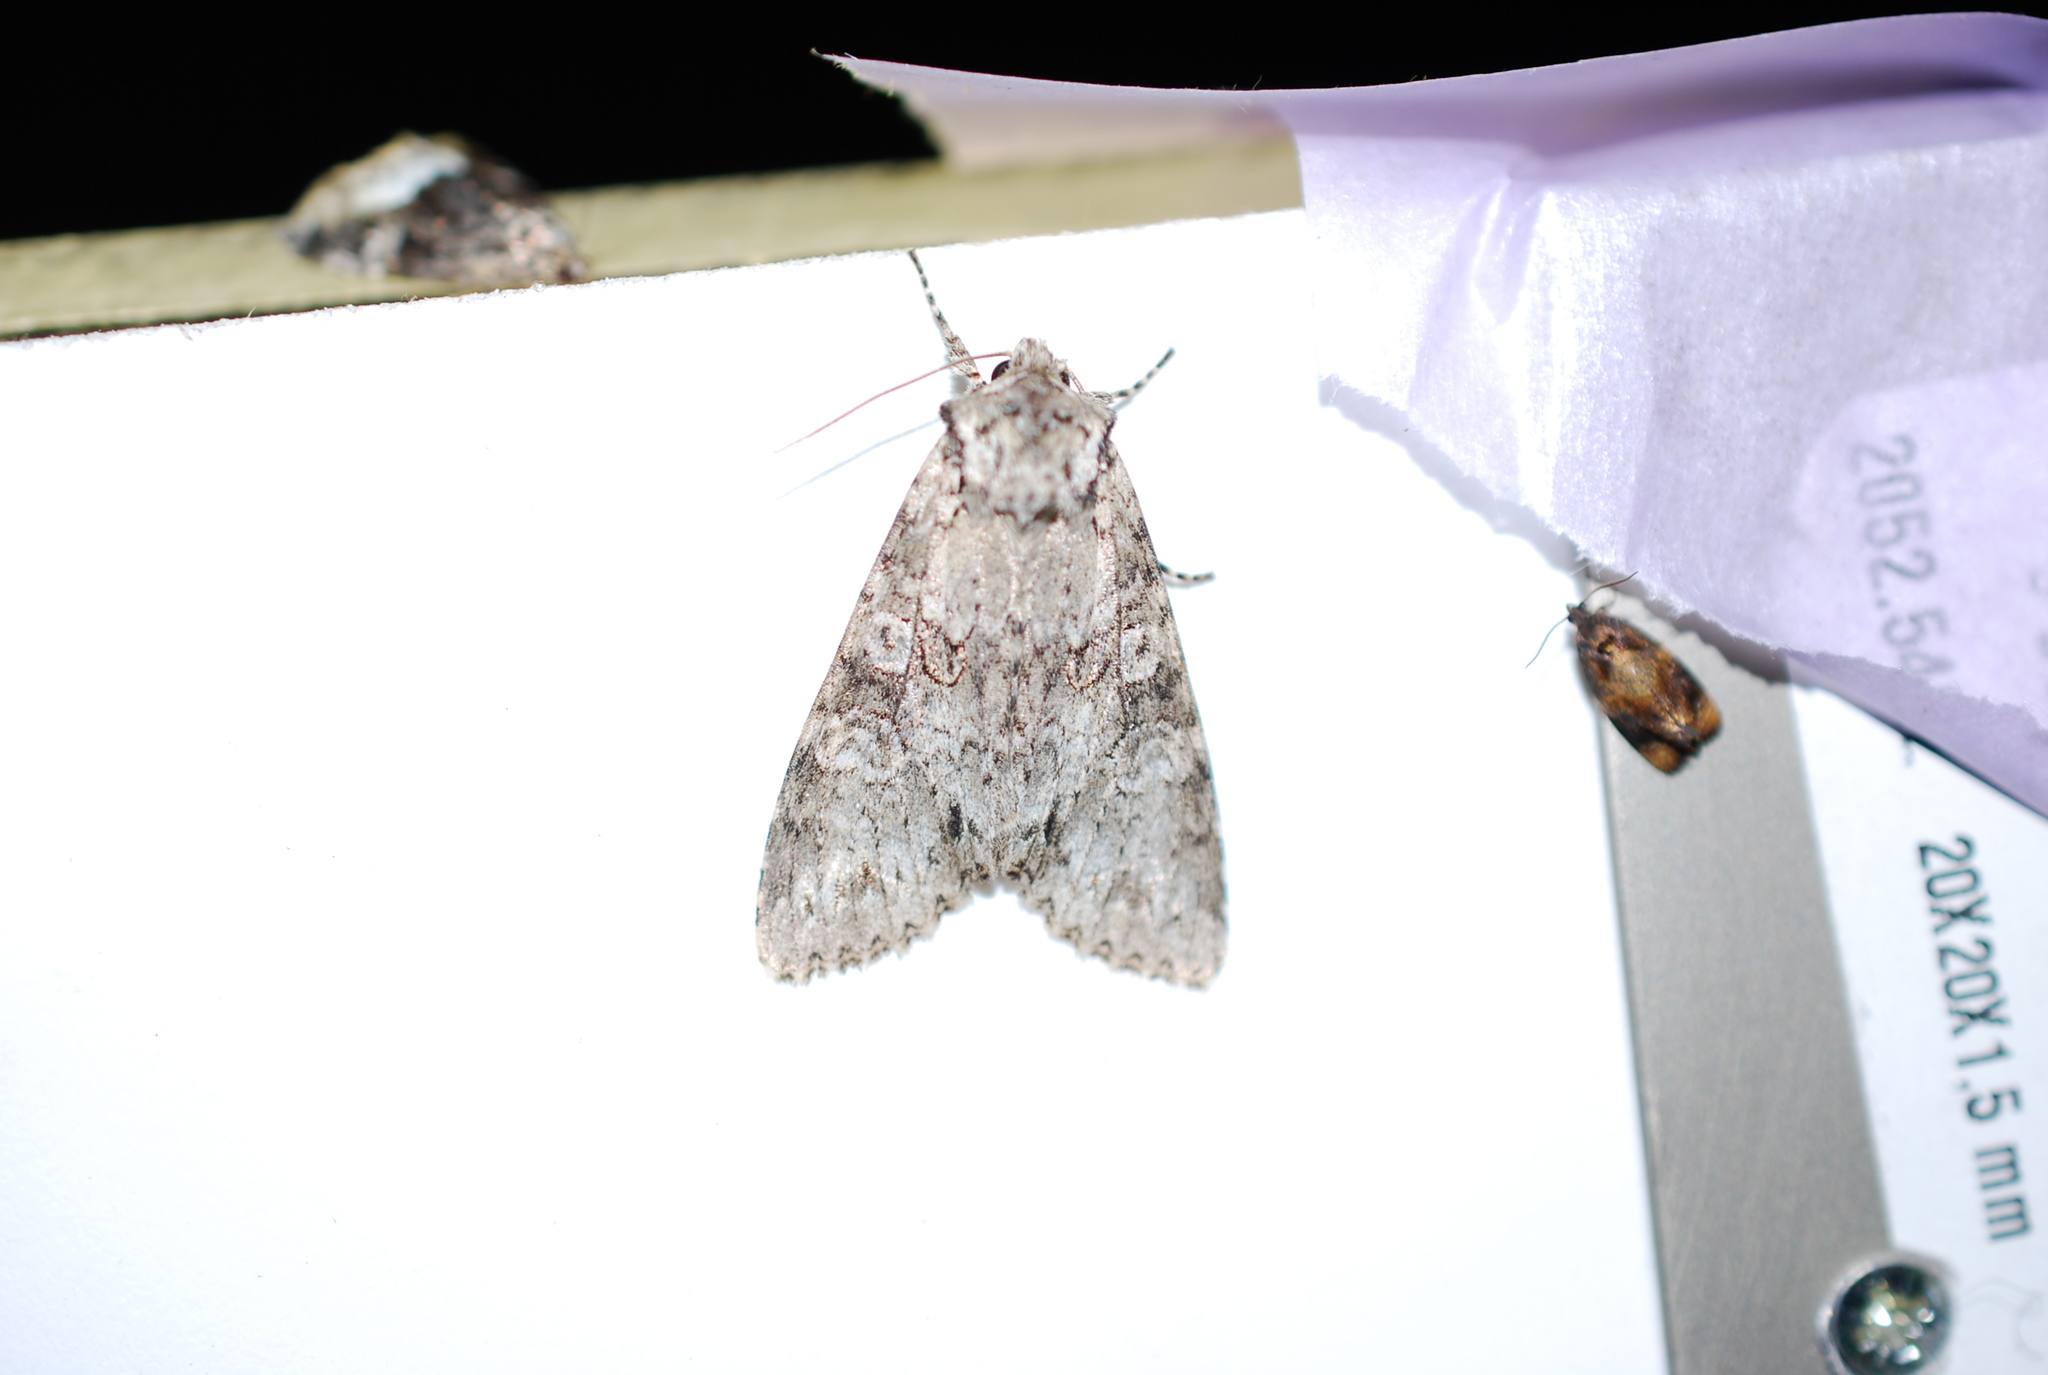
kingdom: Animalia
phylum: Arthropoda
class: Insecta
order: Lepidoptera
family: Noctuidae
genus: Polia
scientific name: Polia nebulosa
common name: Grey arches
